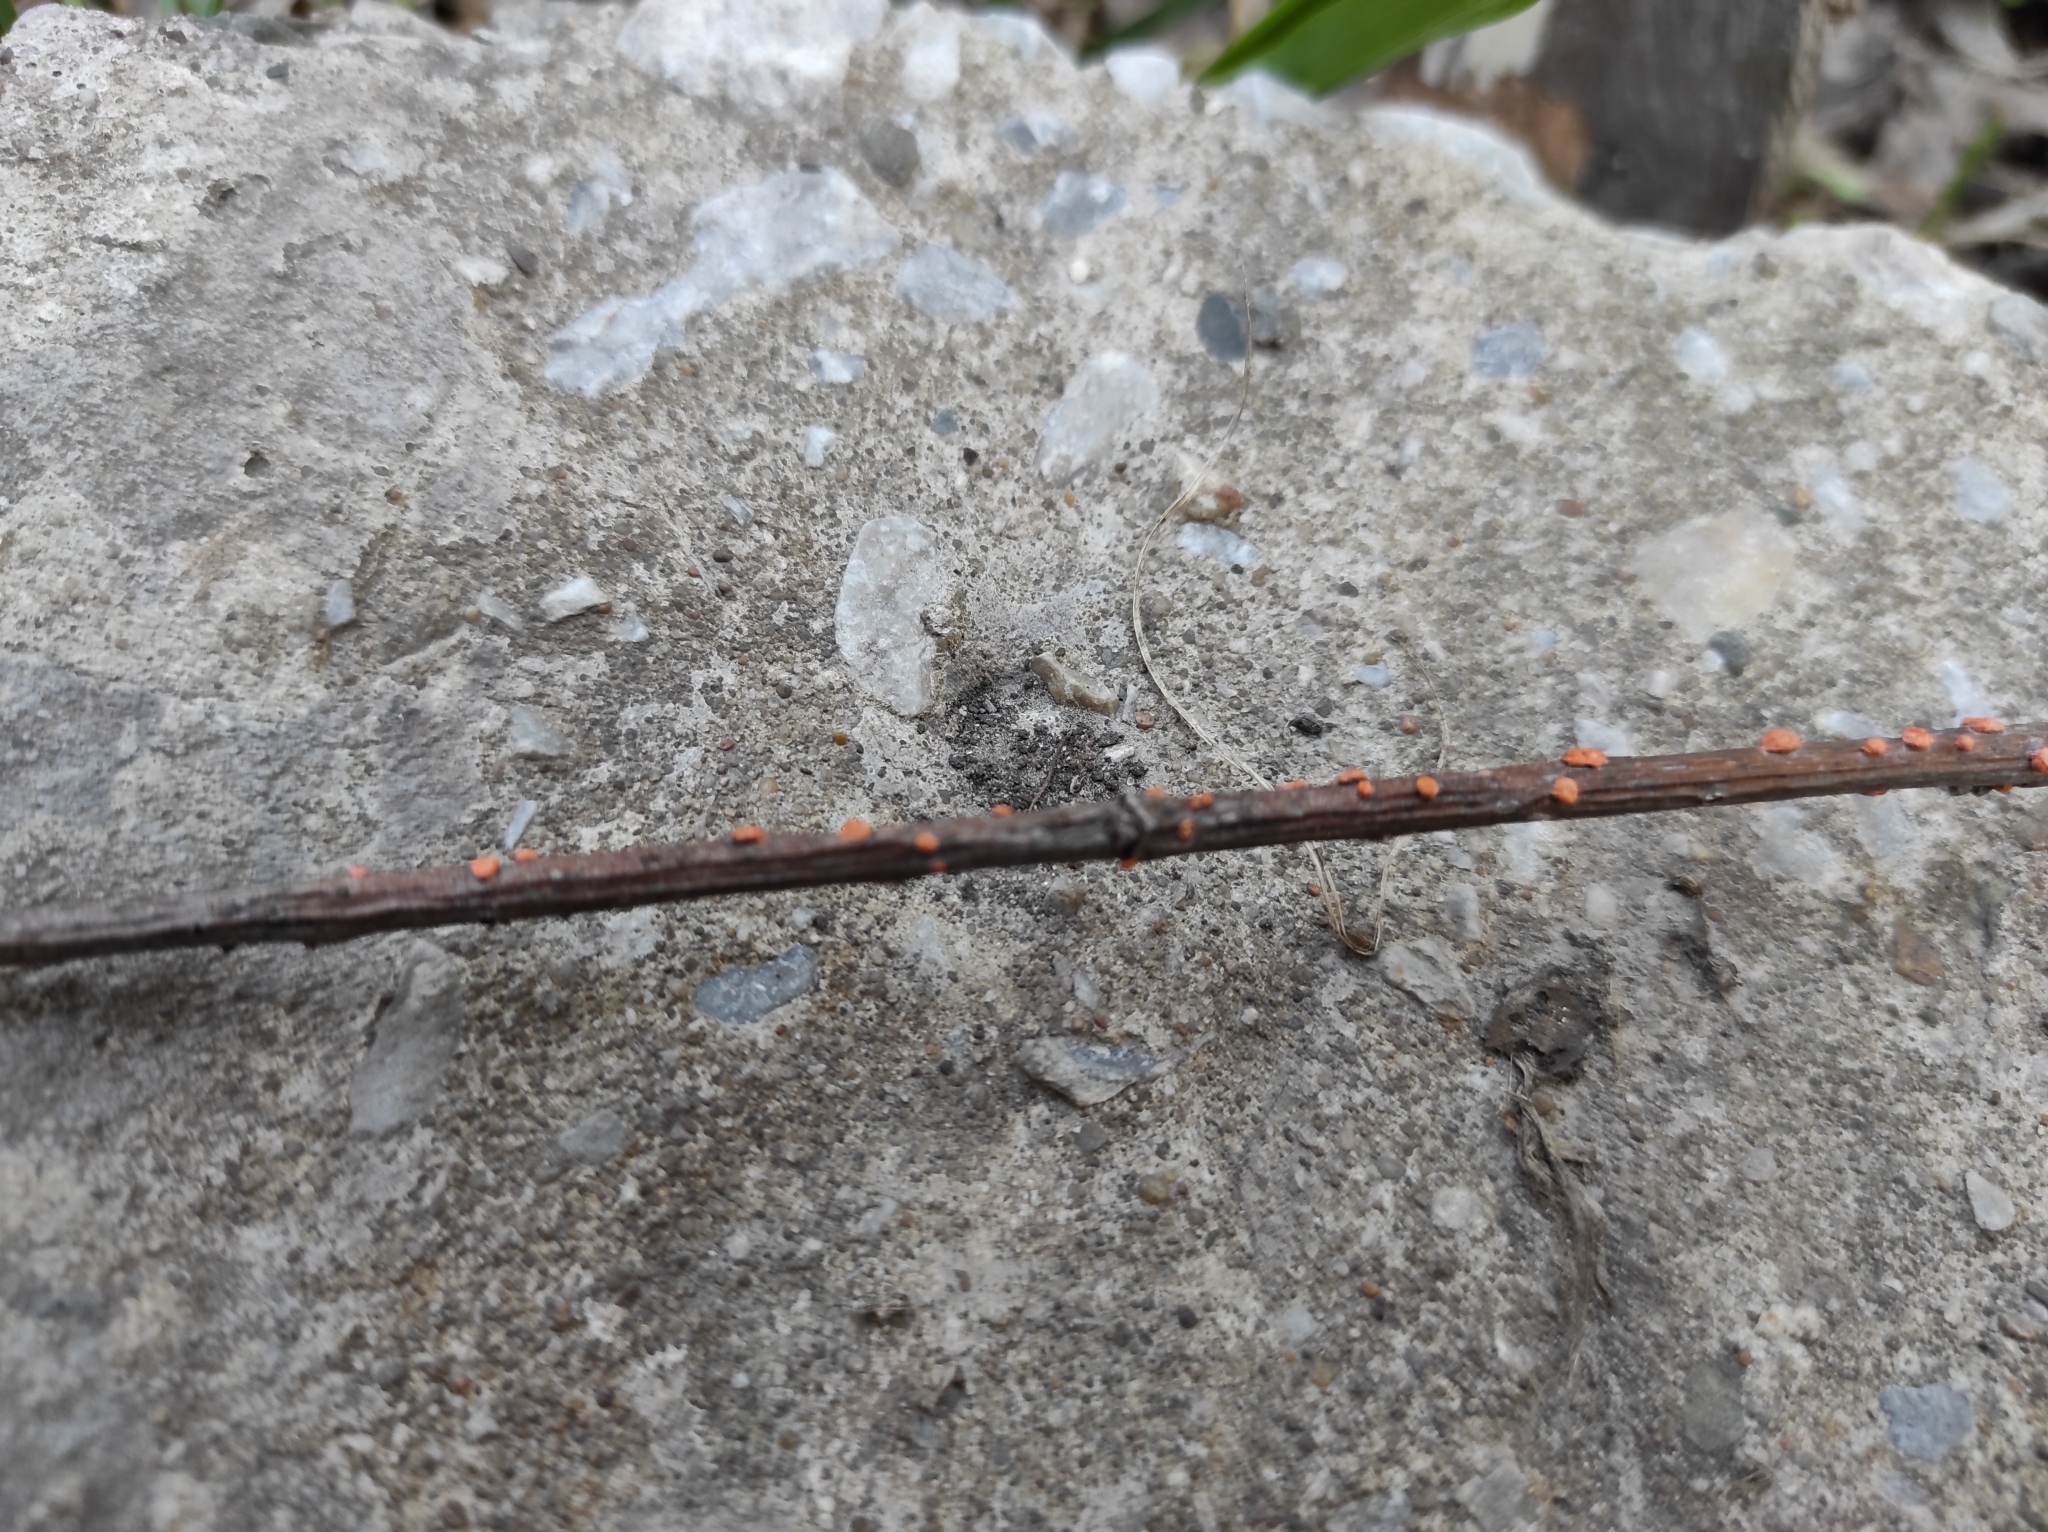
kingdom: Fungi
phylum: Ascomycota
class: Sordariomycetes
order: Hypocreales
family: Nectriaceae
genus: Nectria
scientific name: Nectria cinnabarina
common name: Coral spot
